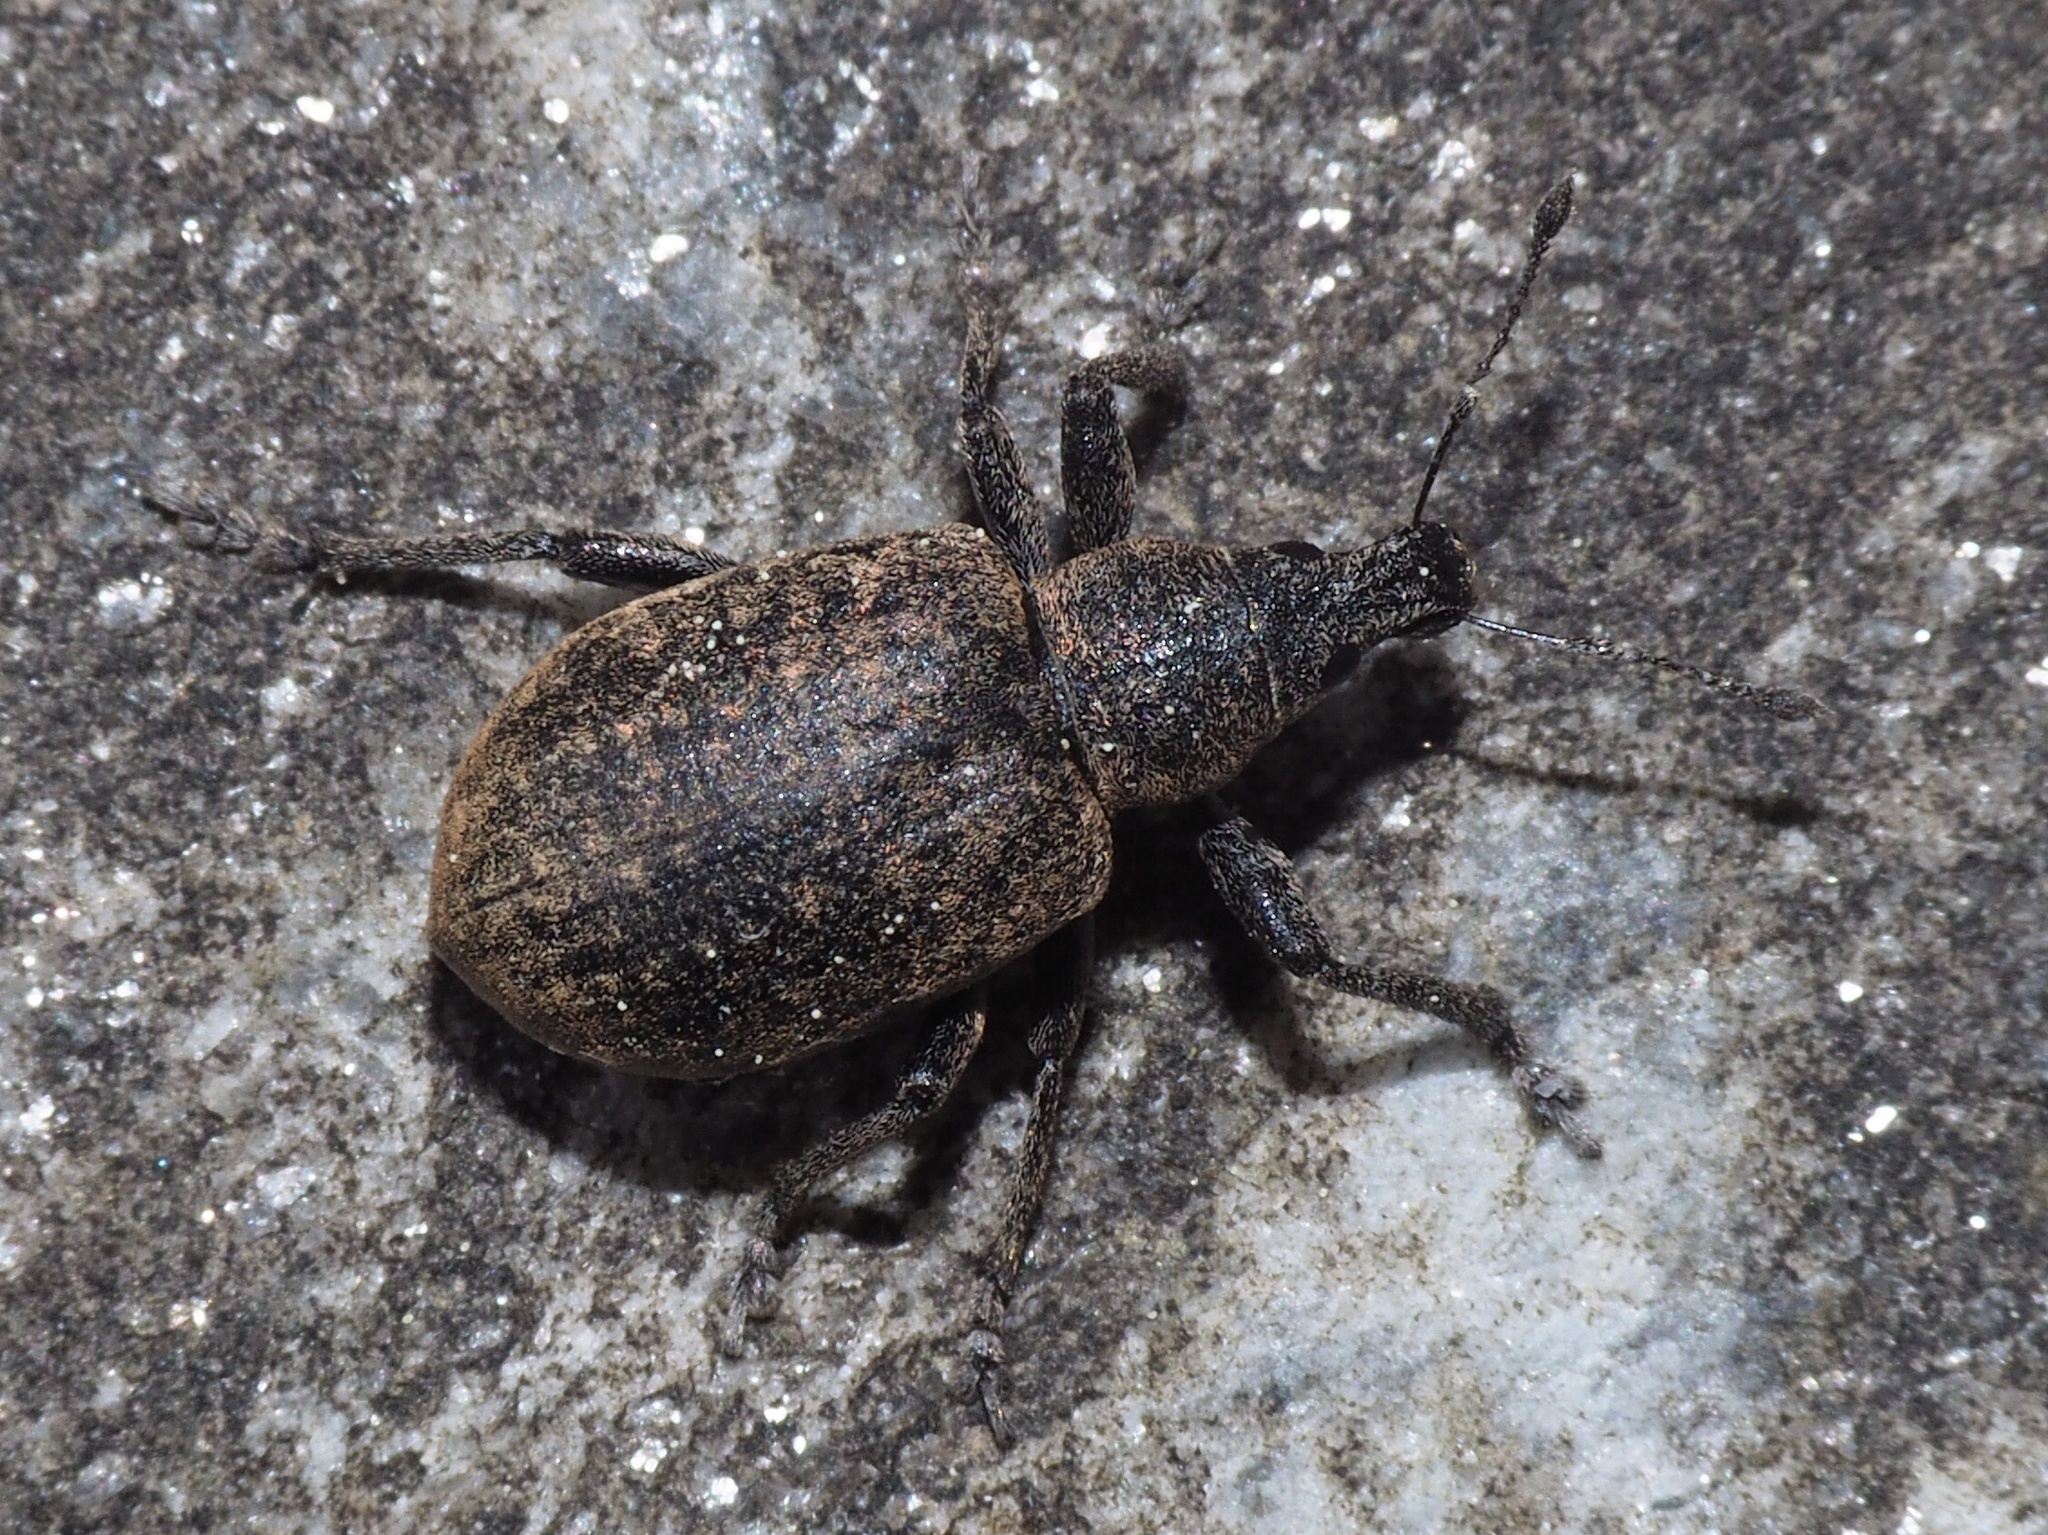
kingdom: Animalia
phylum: Arthropoda
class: Insecta
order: Coleoptera
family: Curculionidae
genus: Liophloeus
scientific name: Liophloeus tessulatus
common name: Weevil
